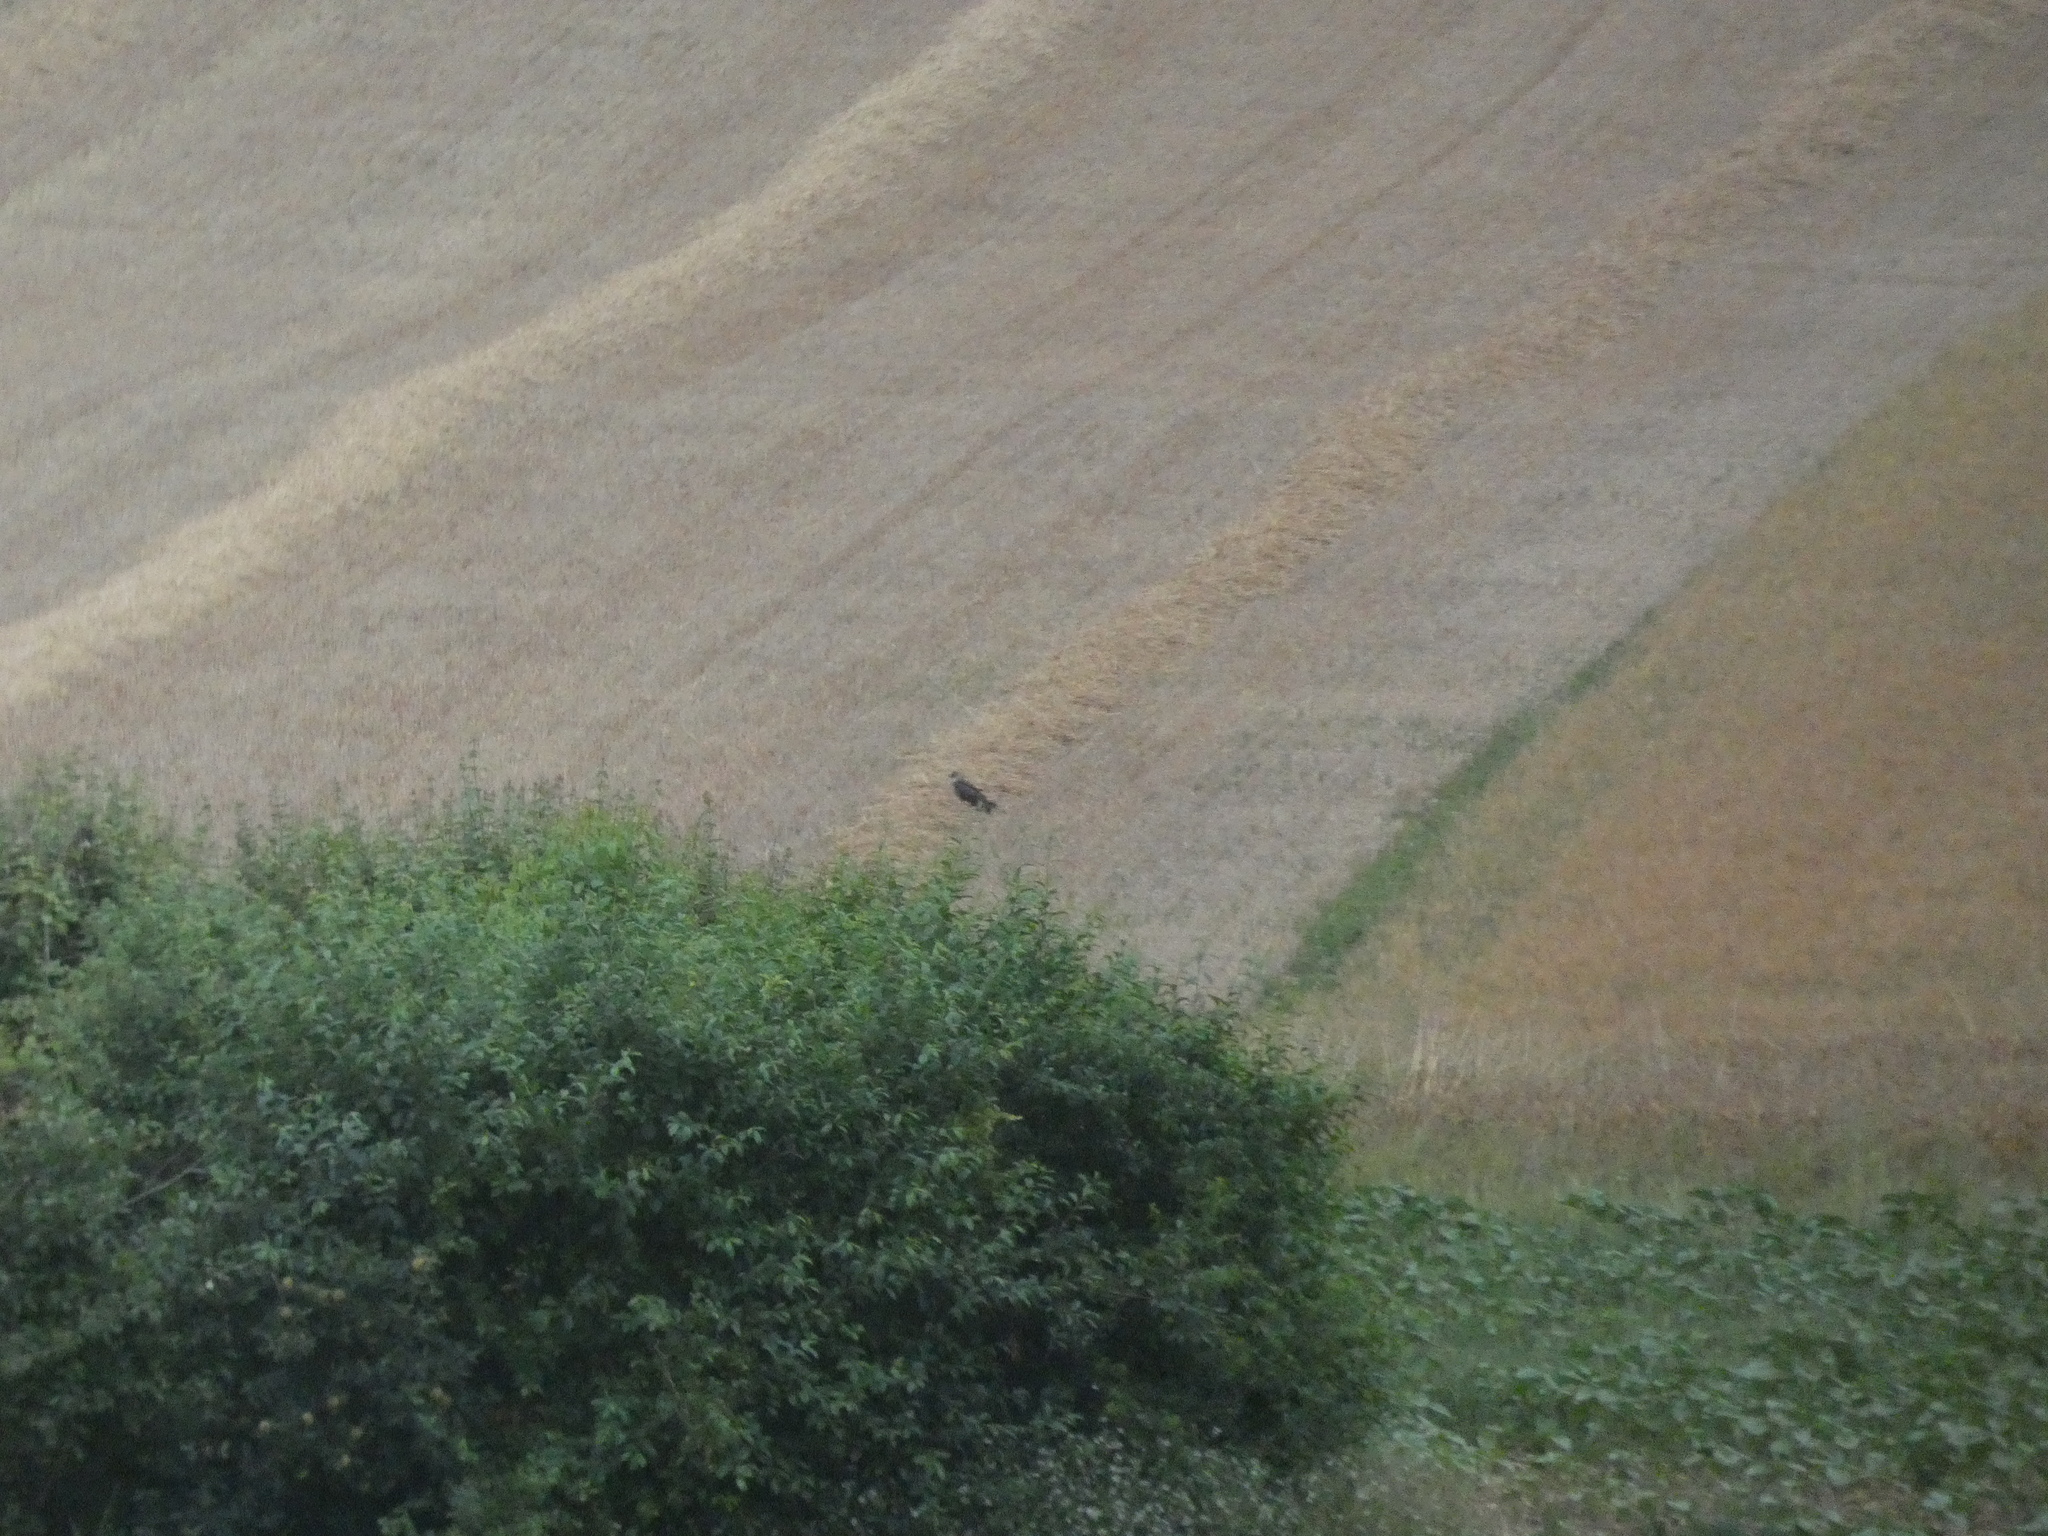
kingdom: Animalia
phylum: Chordata
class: Aves
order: Accipitriformes
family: Accipitridae
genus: Circus
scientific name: Circus cyaneus
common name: Hen harrier
